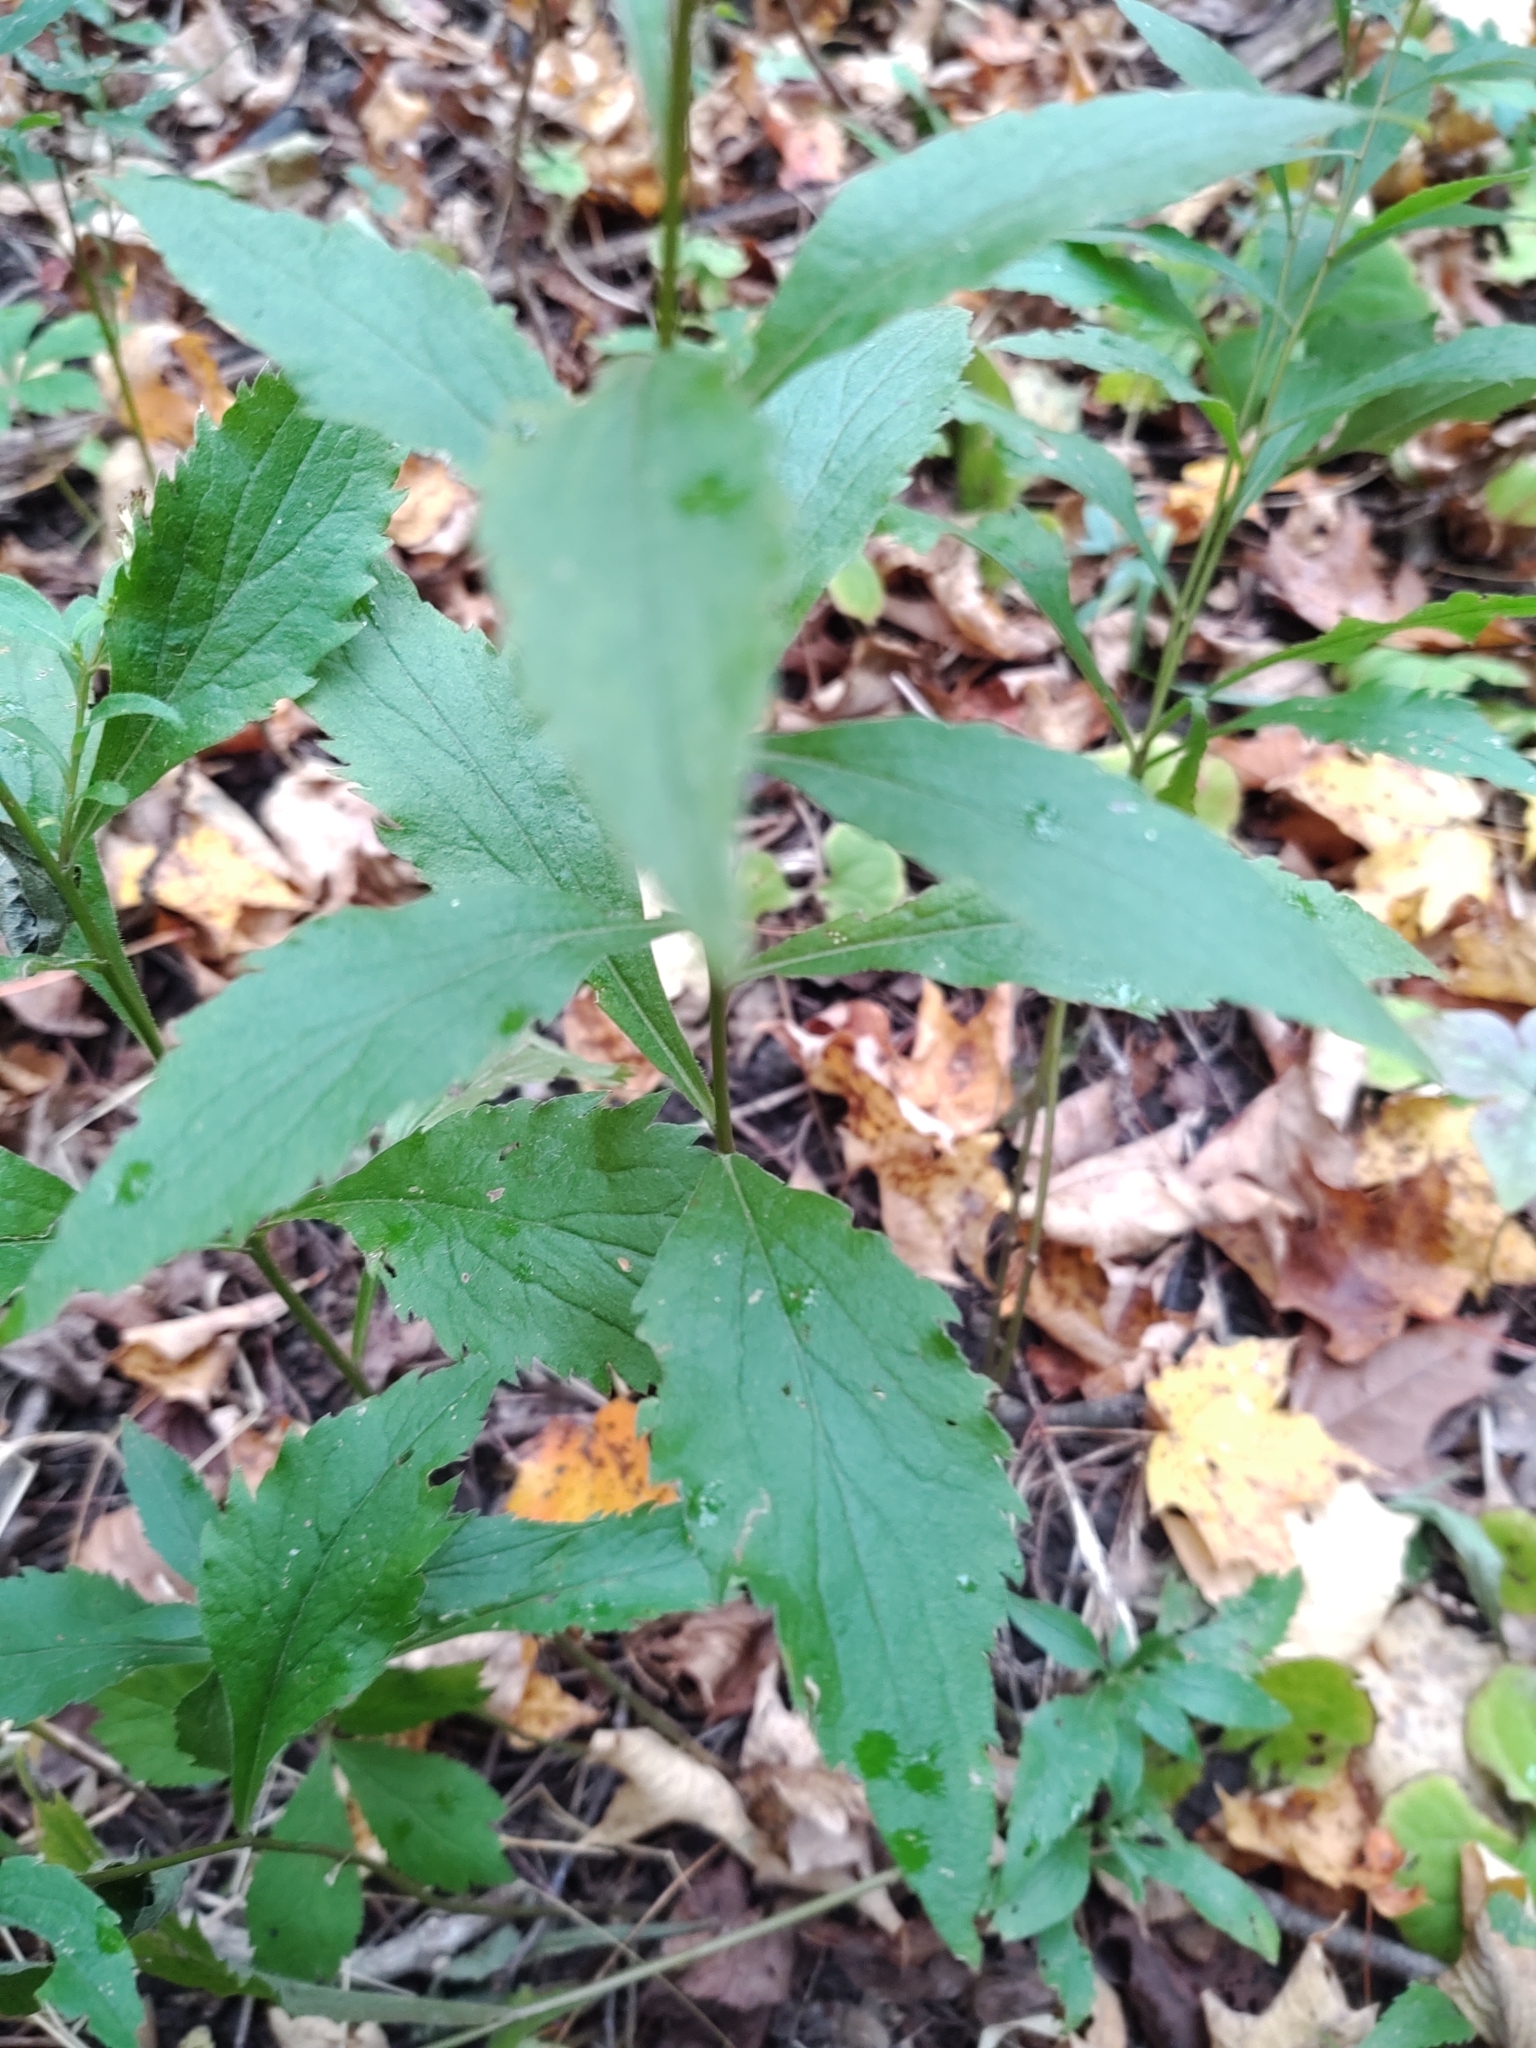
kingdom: Plantae
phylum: Tracheophyta
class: Magnoliopsida
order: Asterales
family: Asteraceae
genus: Solidago
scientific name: Solidago ulmifolia
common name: Elm-leaf goldenrod
